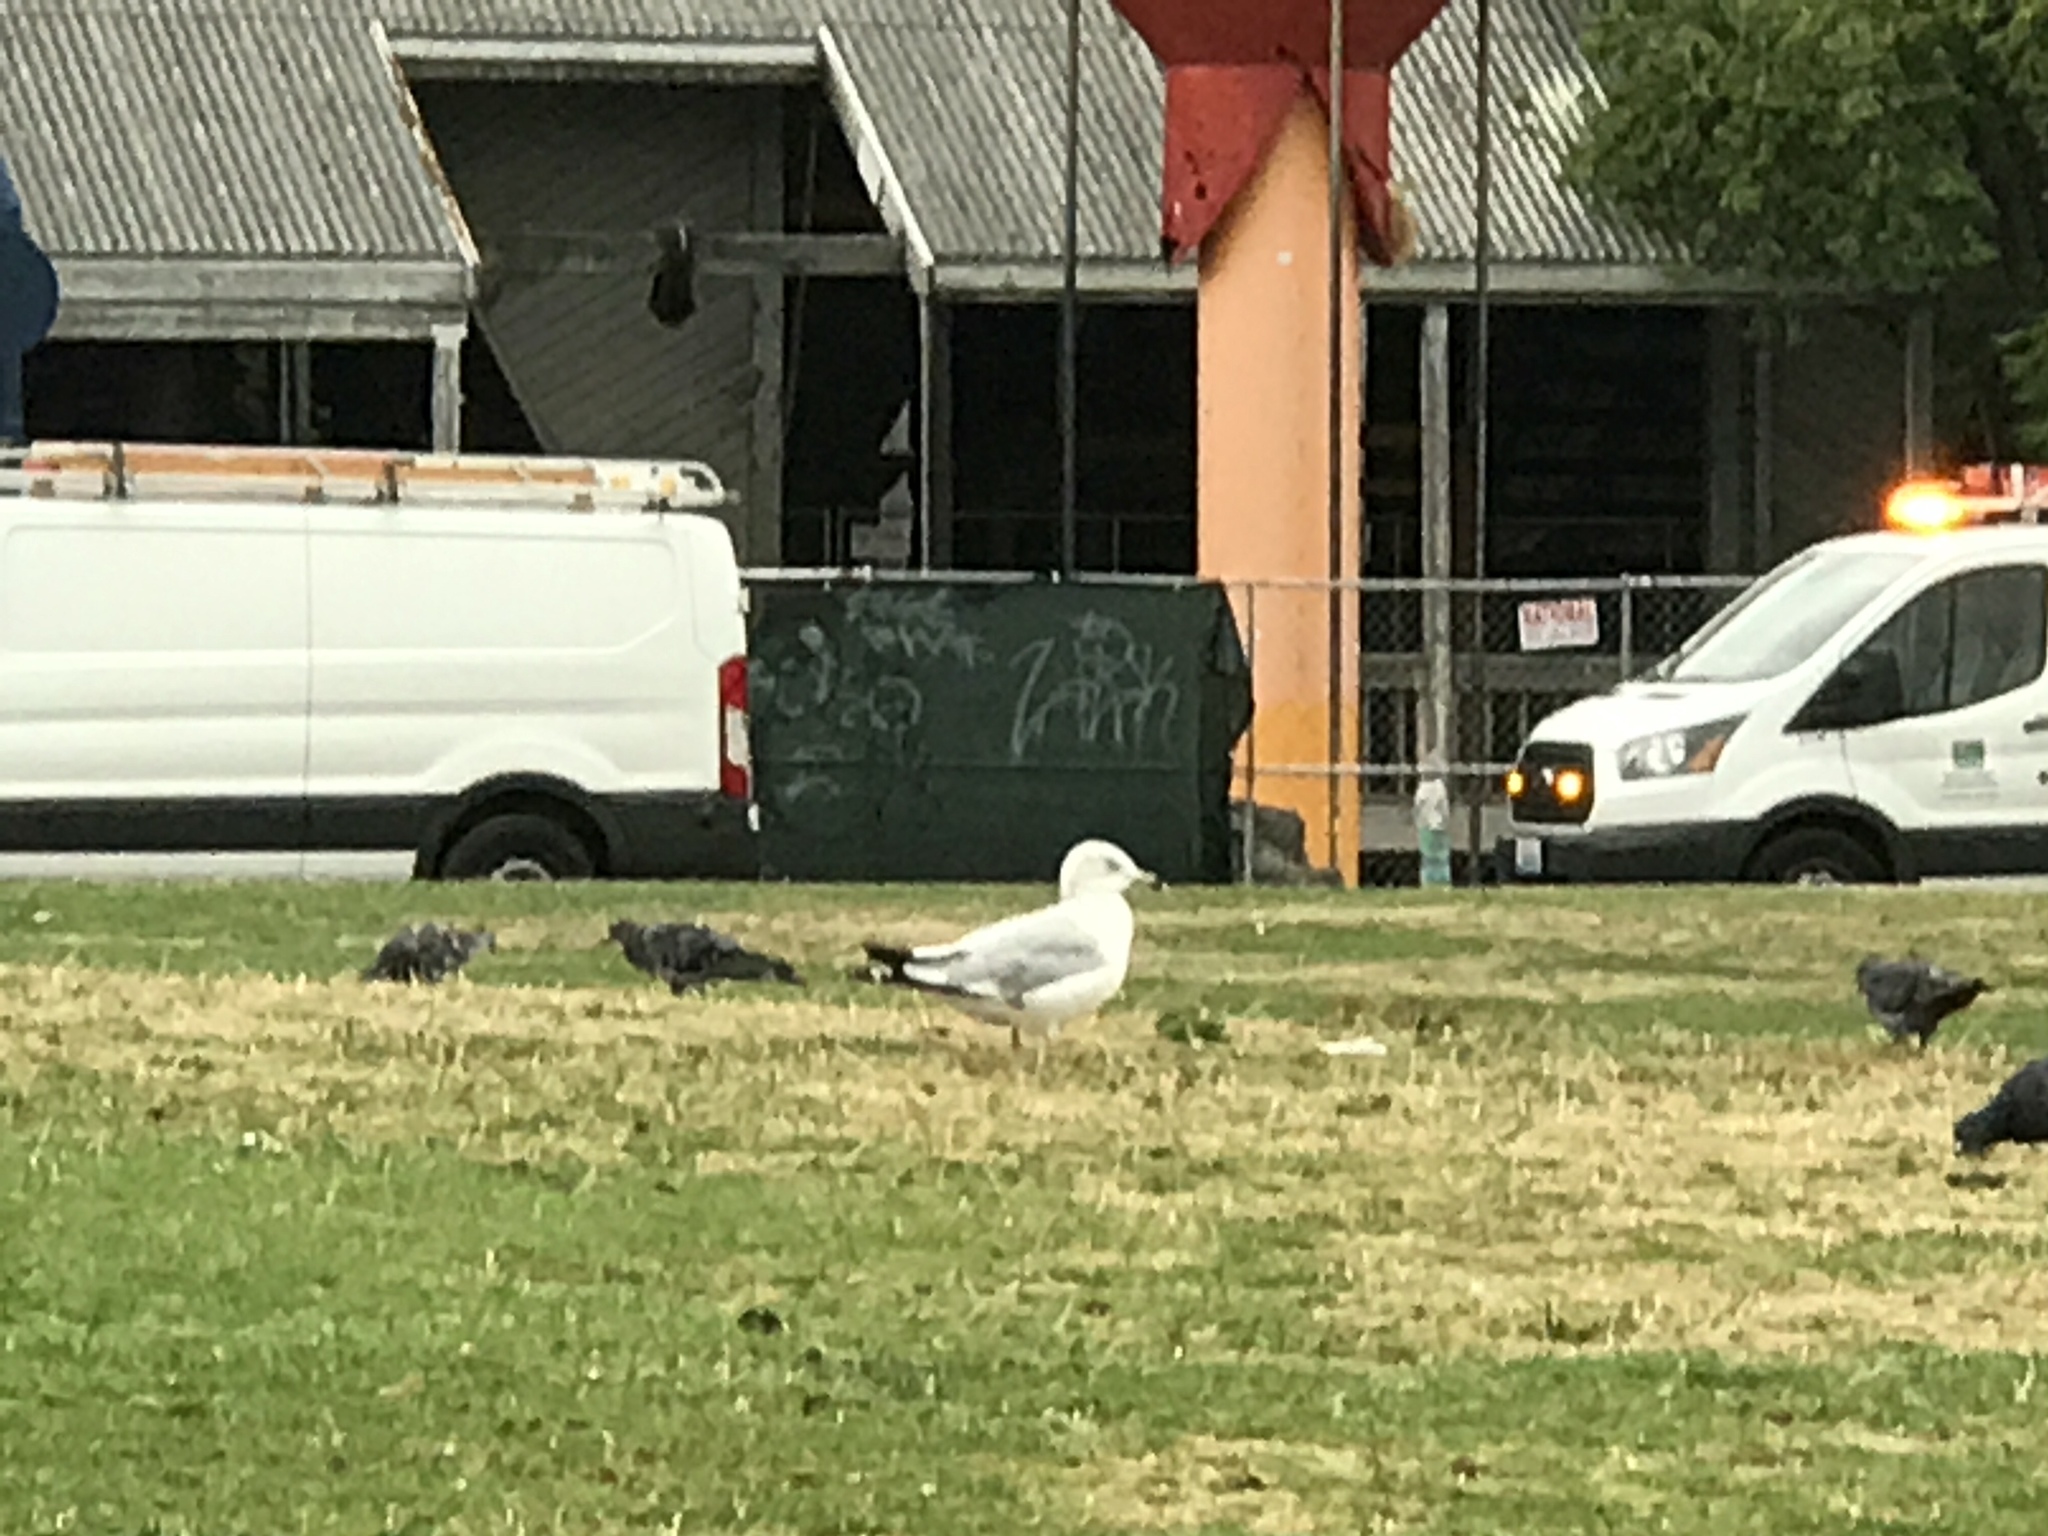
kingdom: Animalia
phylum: Chordata
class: Aves
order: Charadriiformes
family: Laridae
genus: Larus
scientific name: Larus delawarensis
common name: Ring-billed gull
